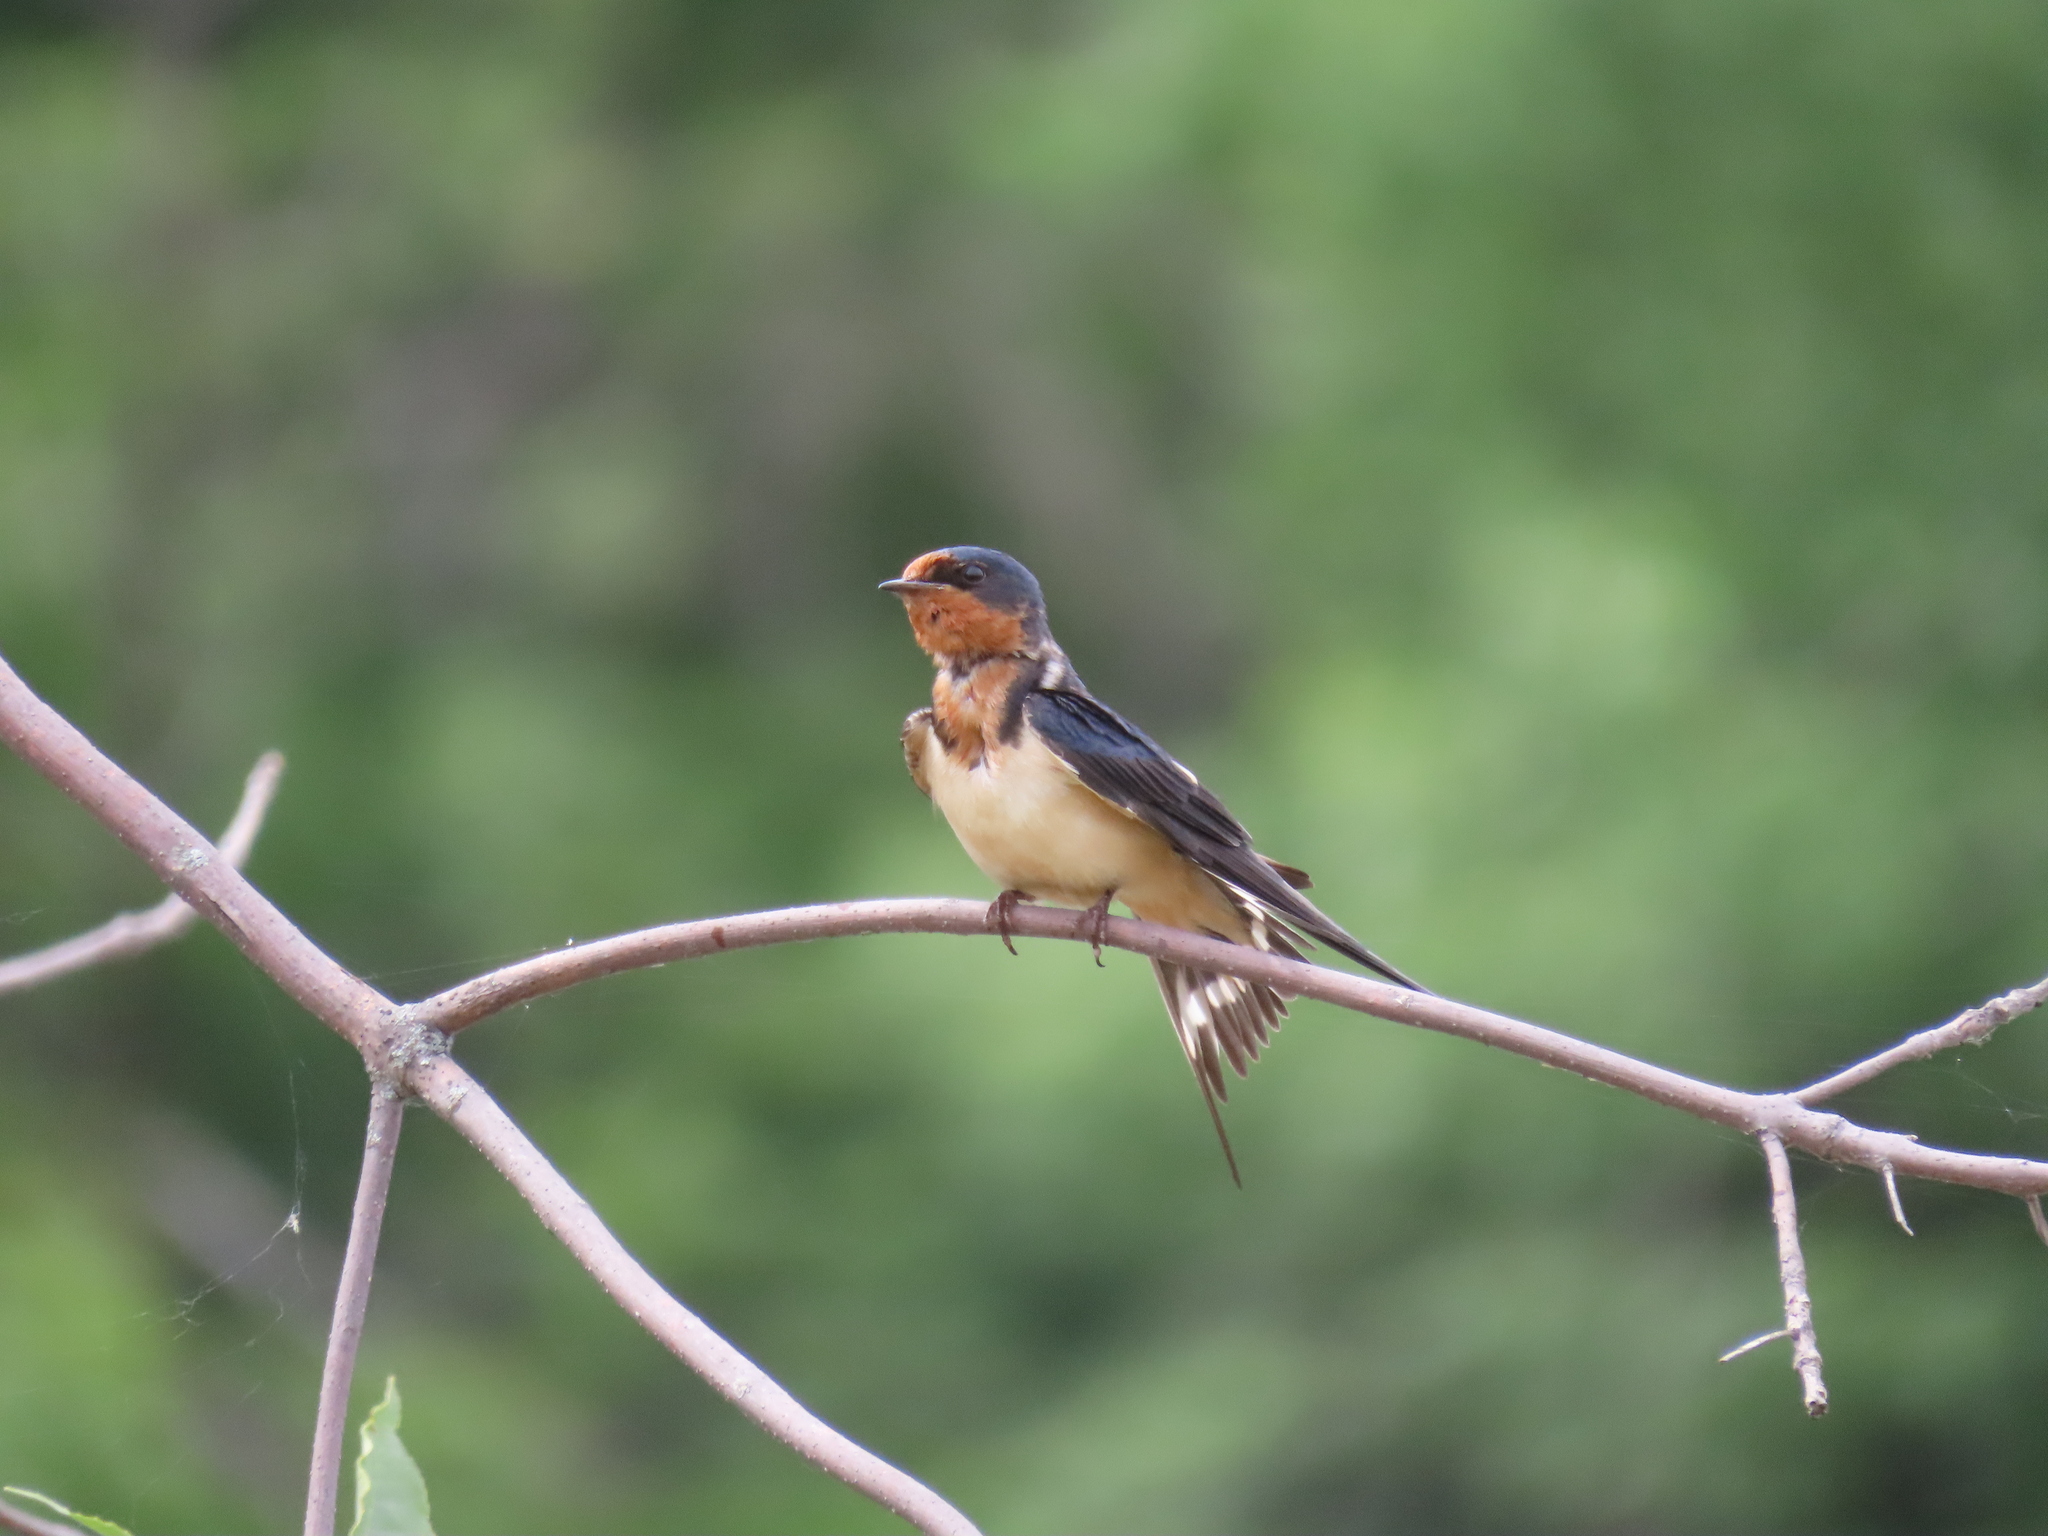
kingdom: Animalia
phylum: Chordata
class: Aves
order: Passeriformes
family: Hirundinidae
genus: Hirundo
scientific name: Hirundo rustica
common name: Barn swallow
